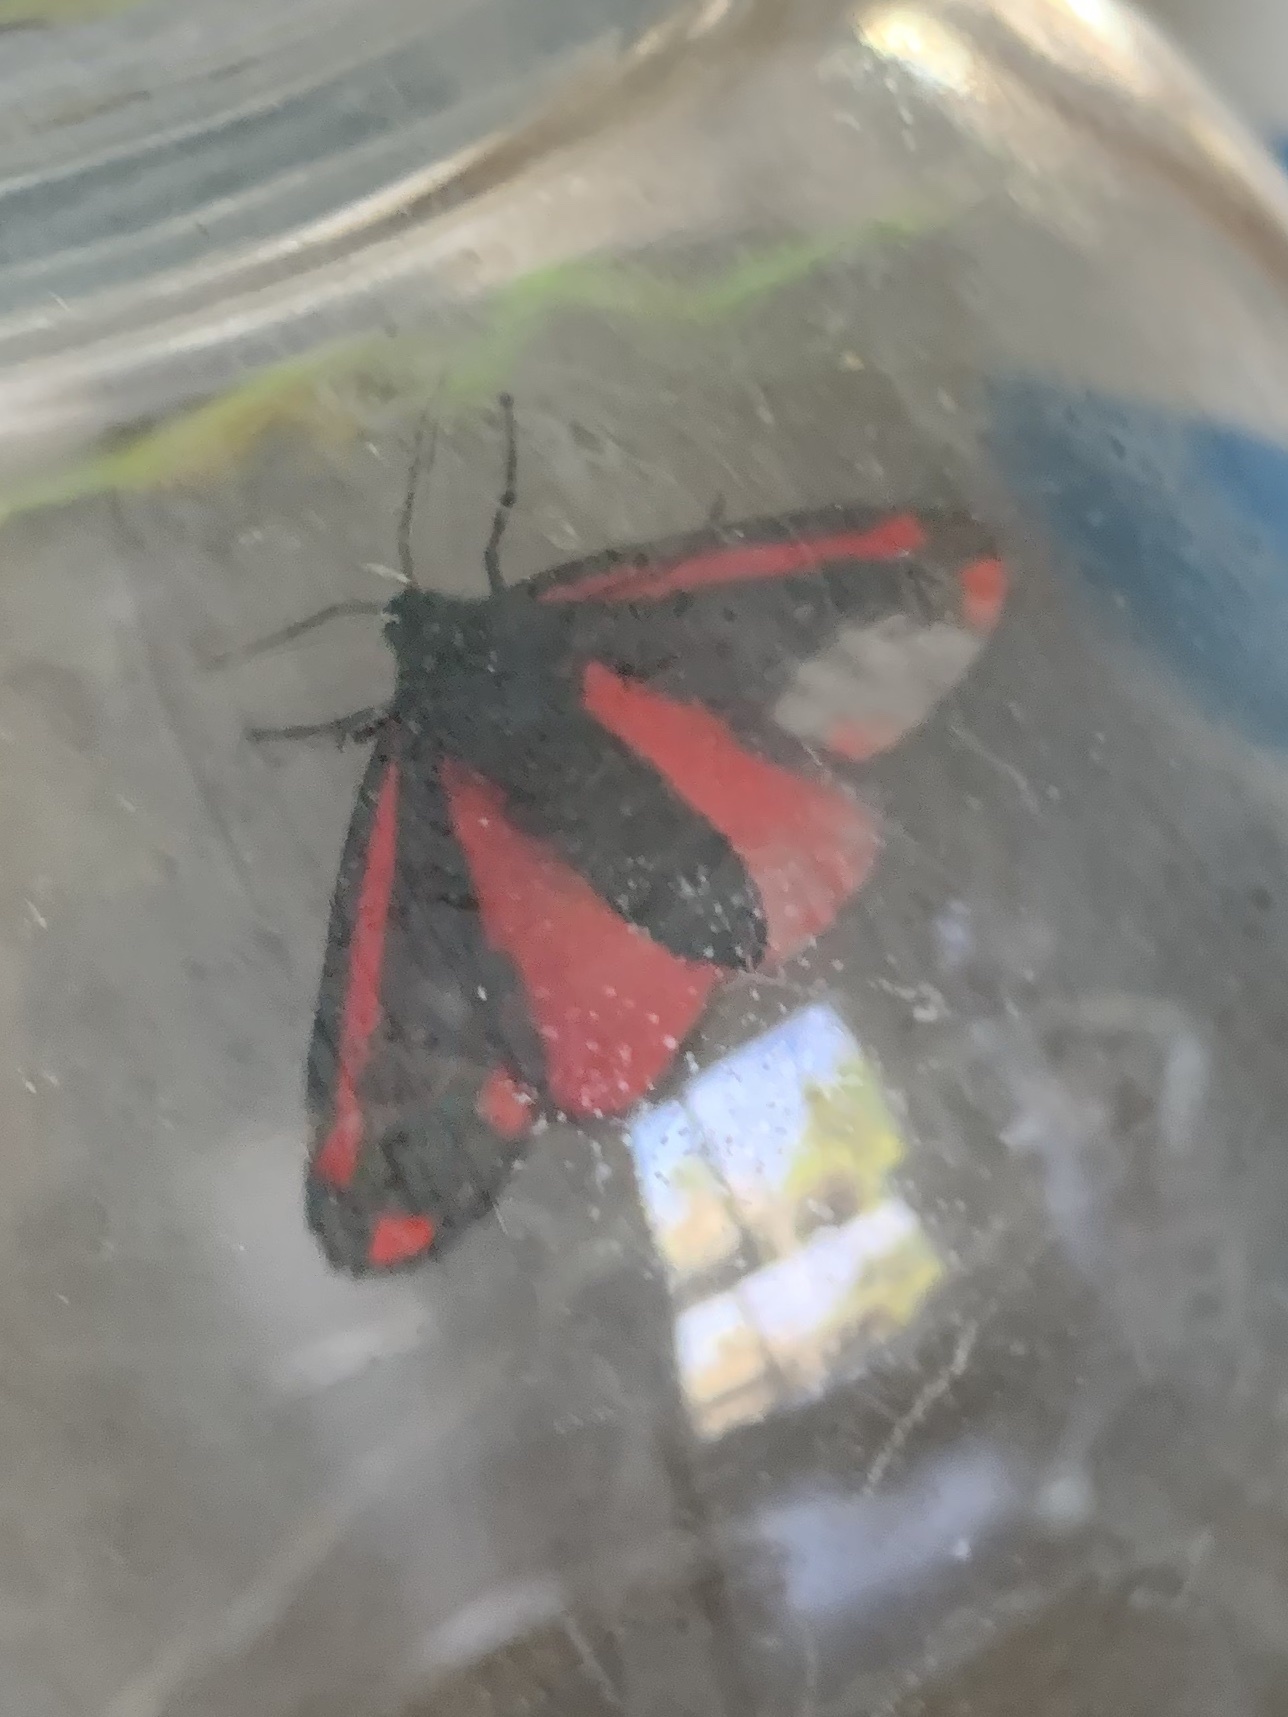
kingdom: Animalia
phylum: Arthropoda
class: Insecta
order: Lepidoptera
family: Erebidae
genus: Tyria
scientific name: Tyria jacobaeae
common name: Cinnabar
